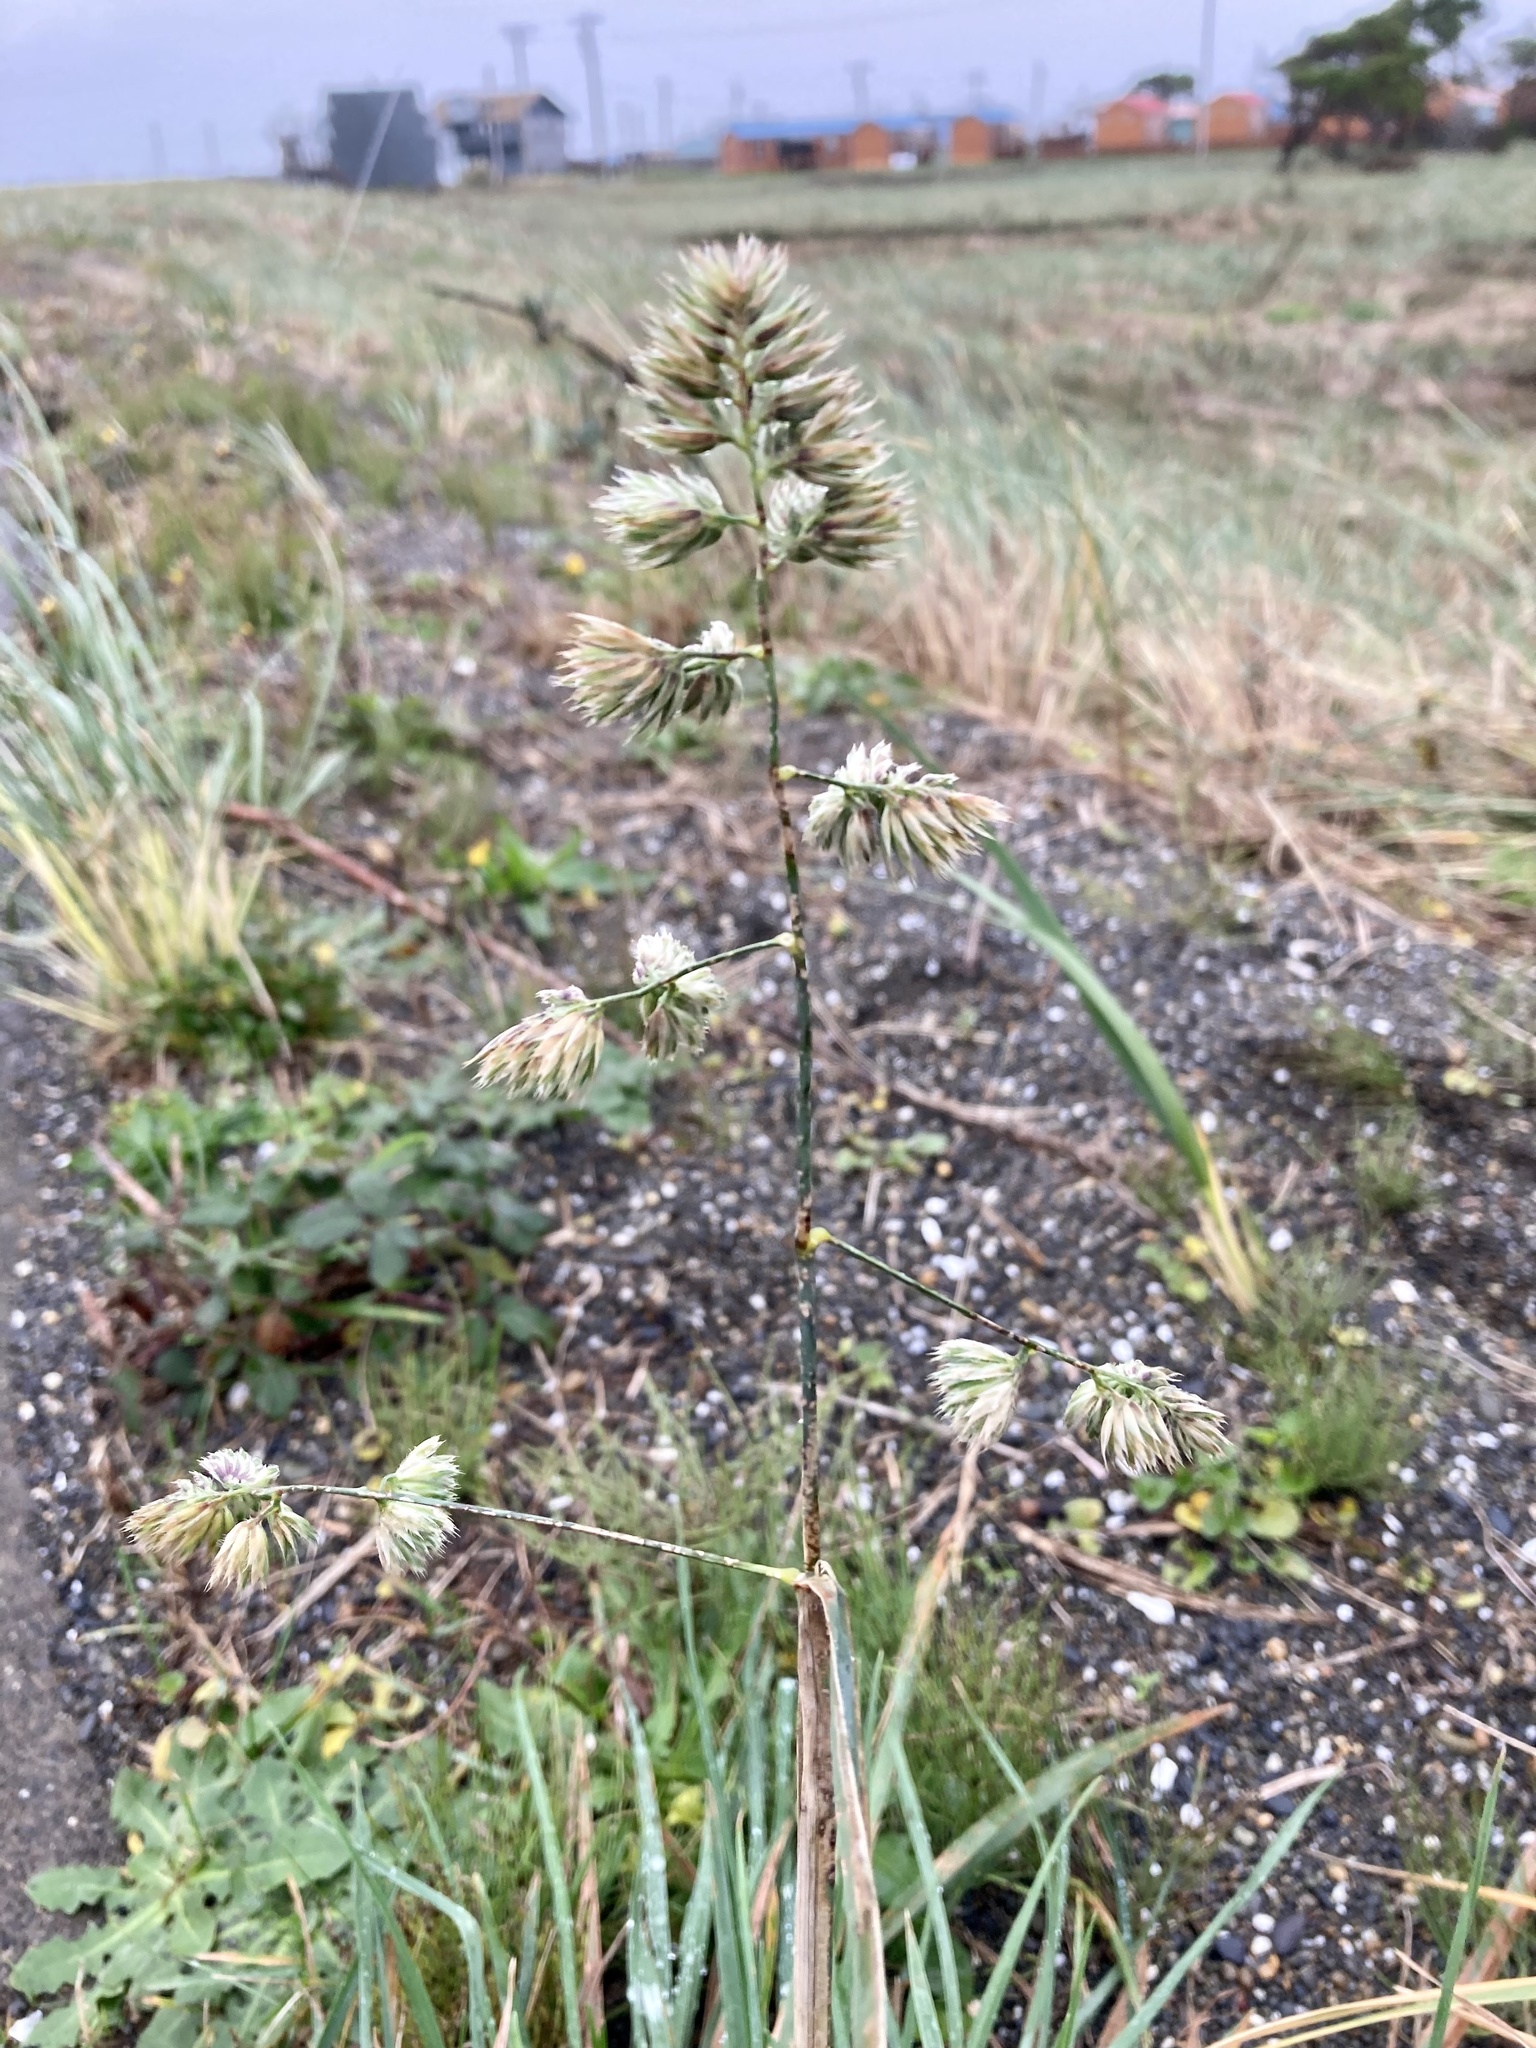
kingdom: Plantae
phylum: Tracheophyta
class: Liliopsida
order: Poales
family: Poaceae
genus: Dactylis
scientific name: Dactylis glomerata
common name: Orchardgrass
